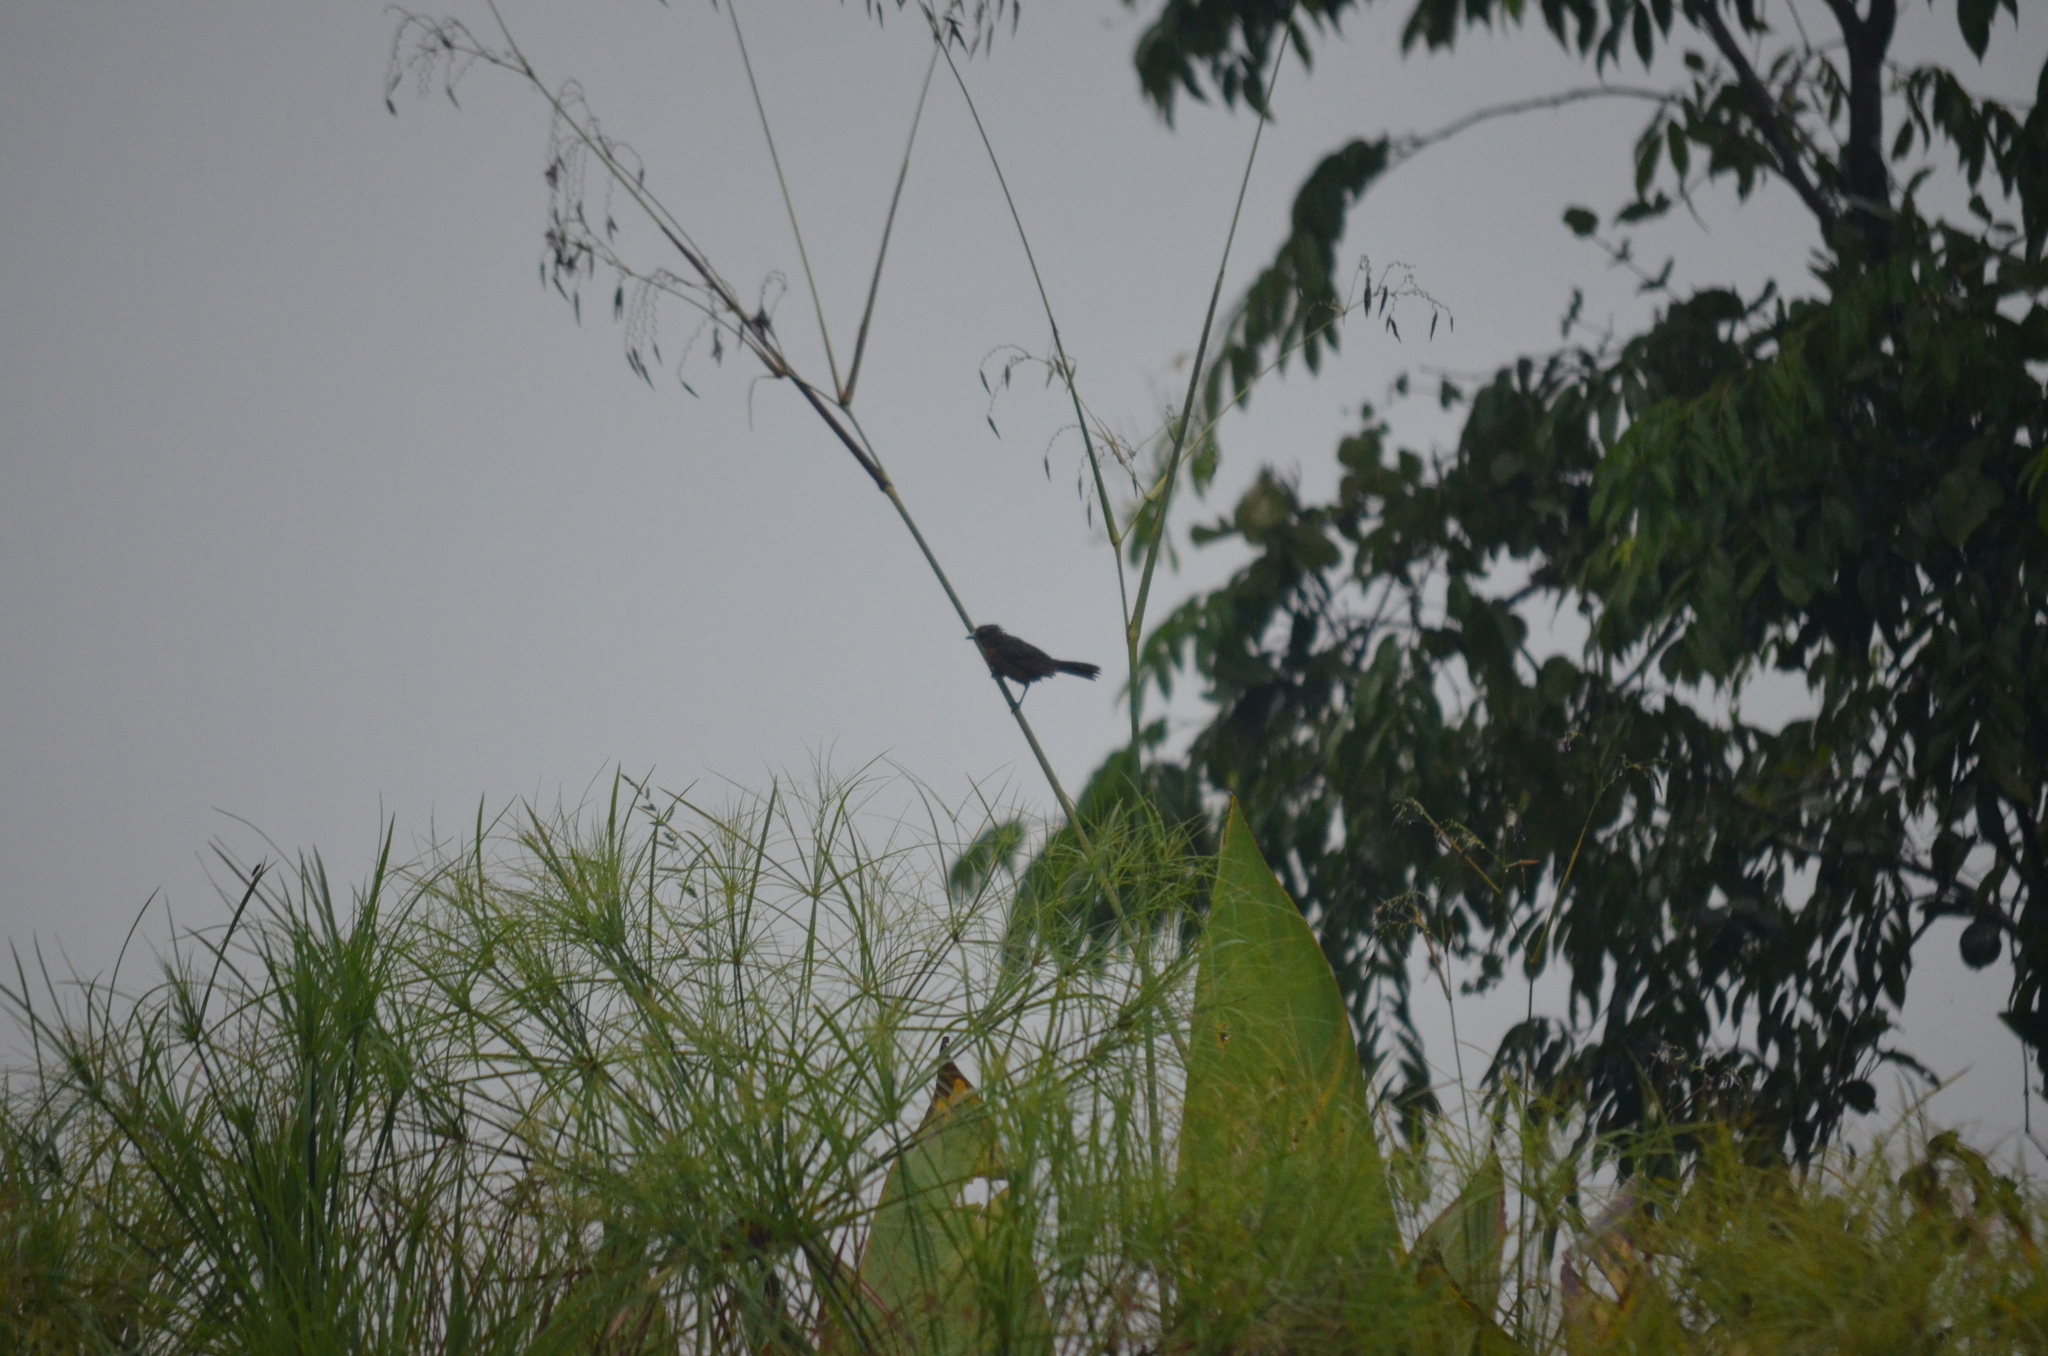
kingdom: Animalia
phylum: Chordata
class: Aves
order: Passeriformes
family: Thraupidae
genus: Ramphocelus
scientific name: Ramphocelus passerinii
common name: Passerini's tanager
